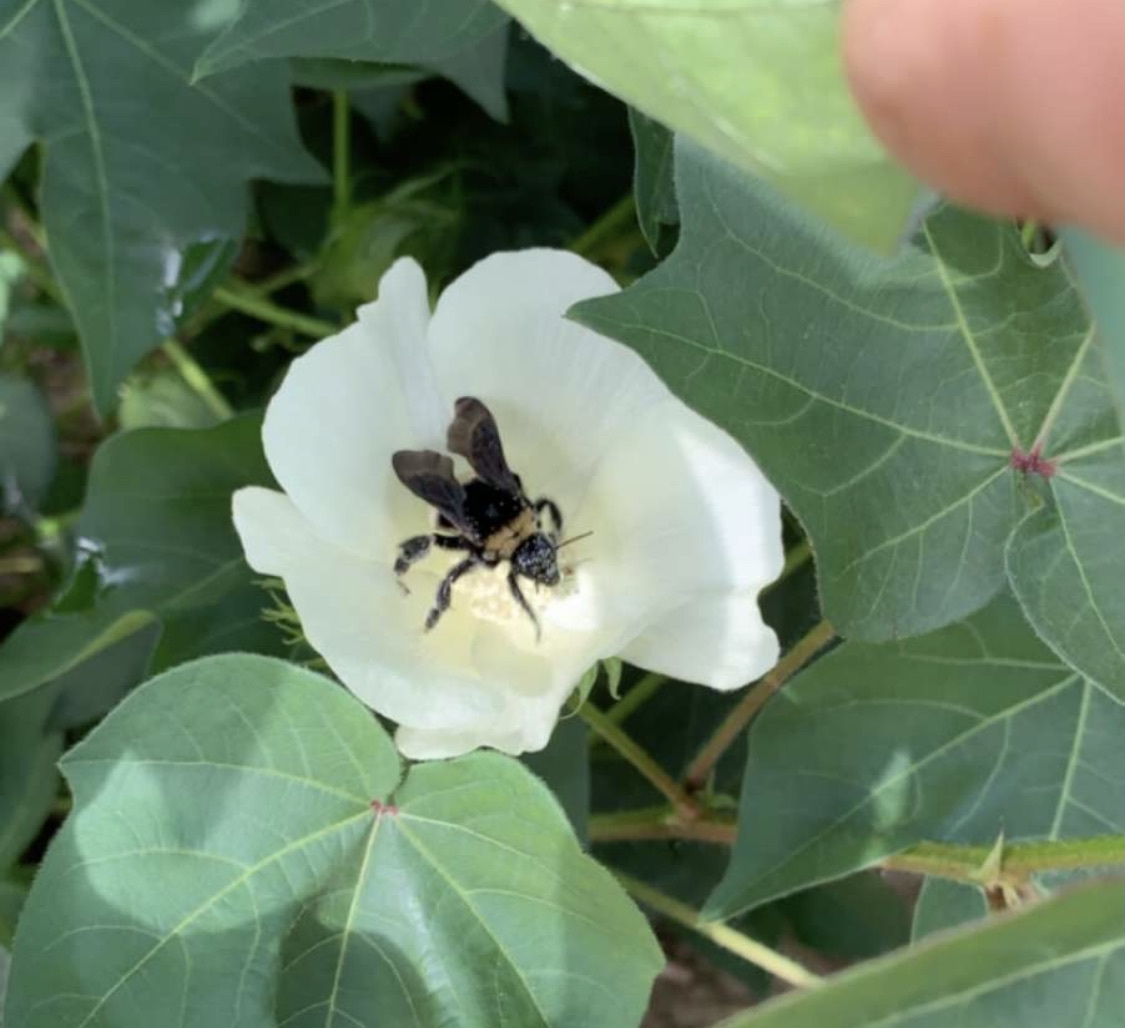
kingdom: Animalia
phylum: Arthropoda
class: Insecta
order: Hymenoptera
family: Apidae
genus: Bombus
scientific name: Bombus pensylvanicus
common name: Bumble bee
